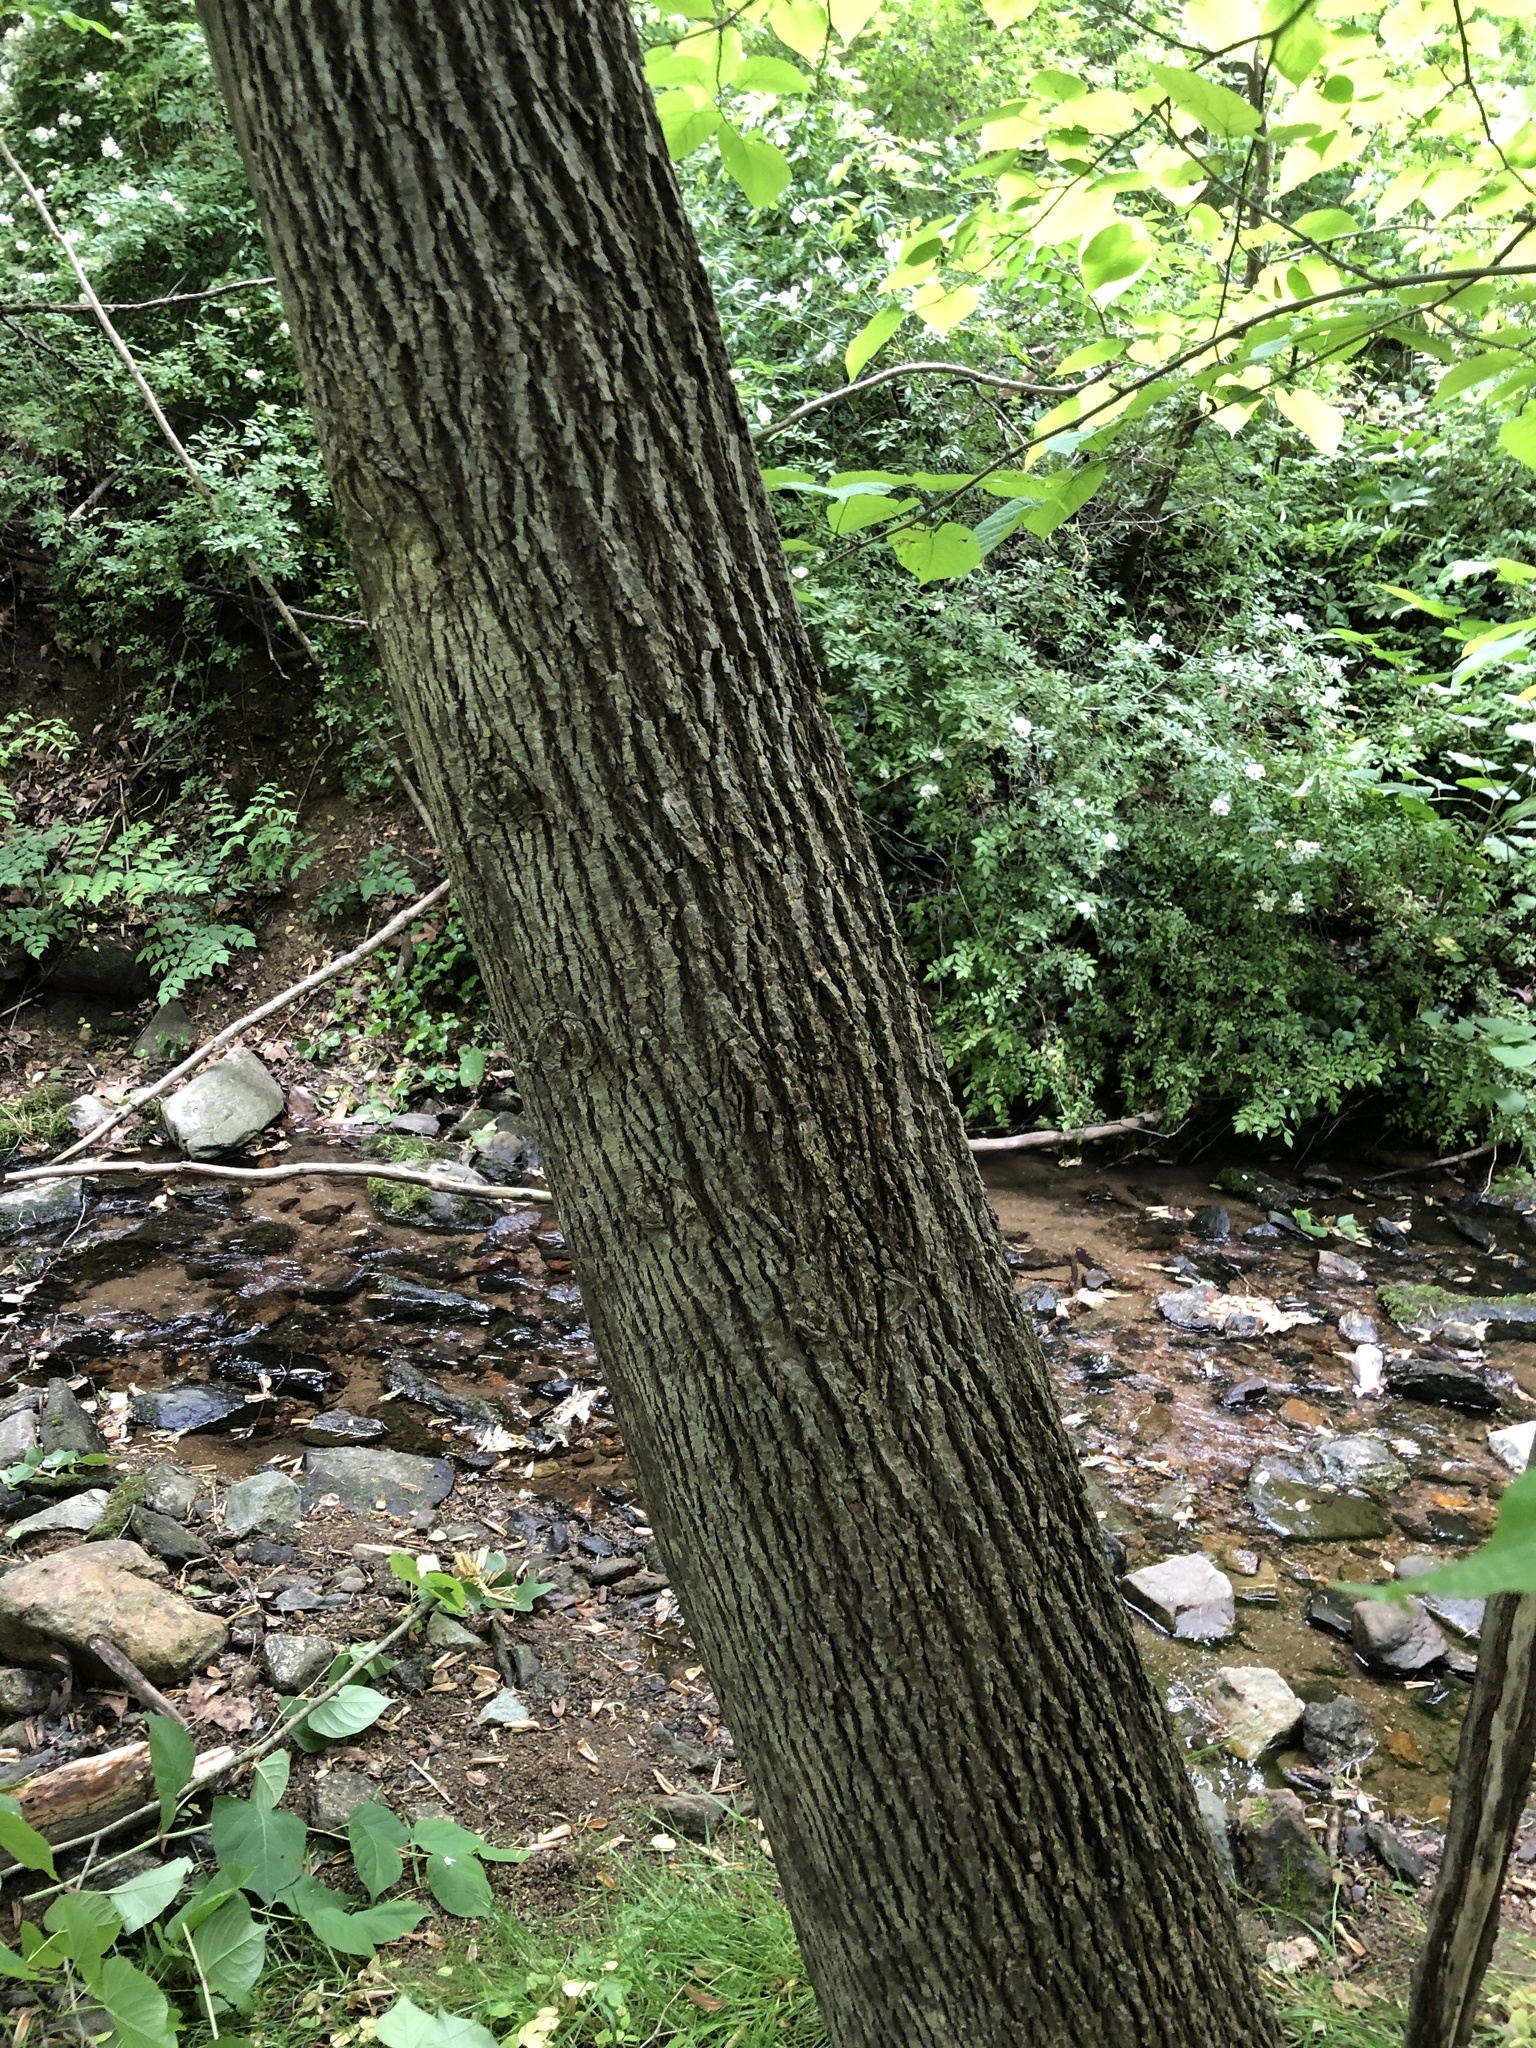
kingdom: Plantae
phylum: Tracheophyta
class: Magnoliopsida
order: Malvales
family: Malvaceae
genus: Tilia
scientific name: Tilia americana
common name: Basswood
